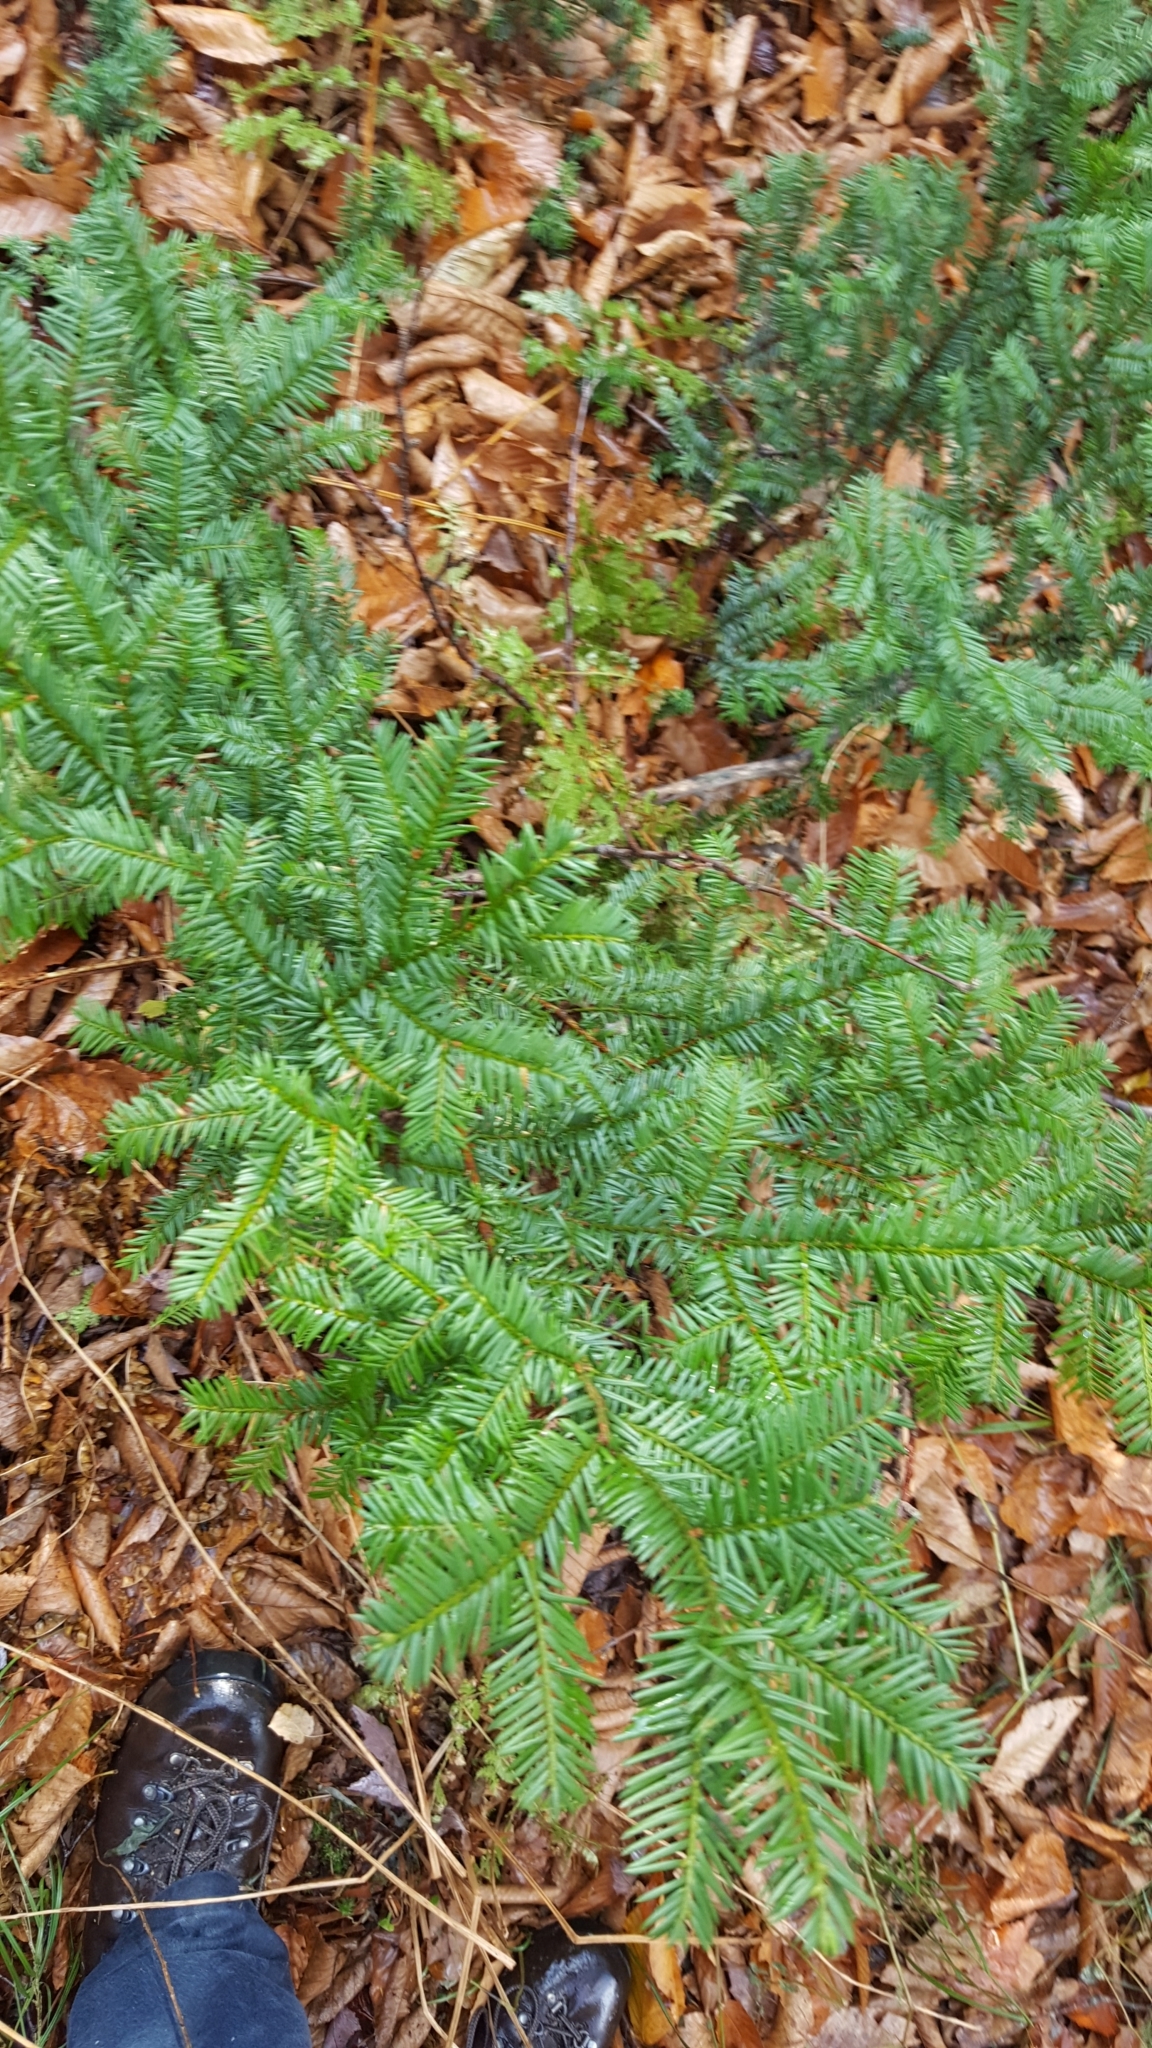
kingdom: Plantae
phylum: Tracheophyta
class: Pinopsida
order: Pinales
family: Taxaceae
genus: Taxus
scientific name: Taxus canadensis
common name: American yew
